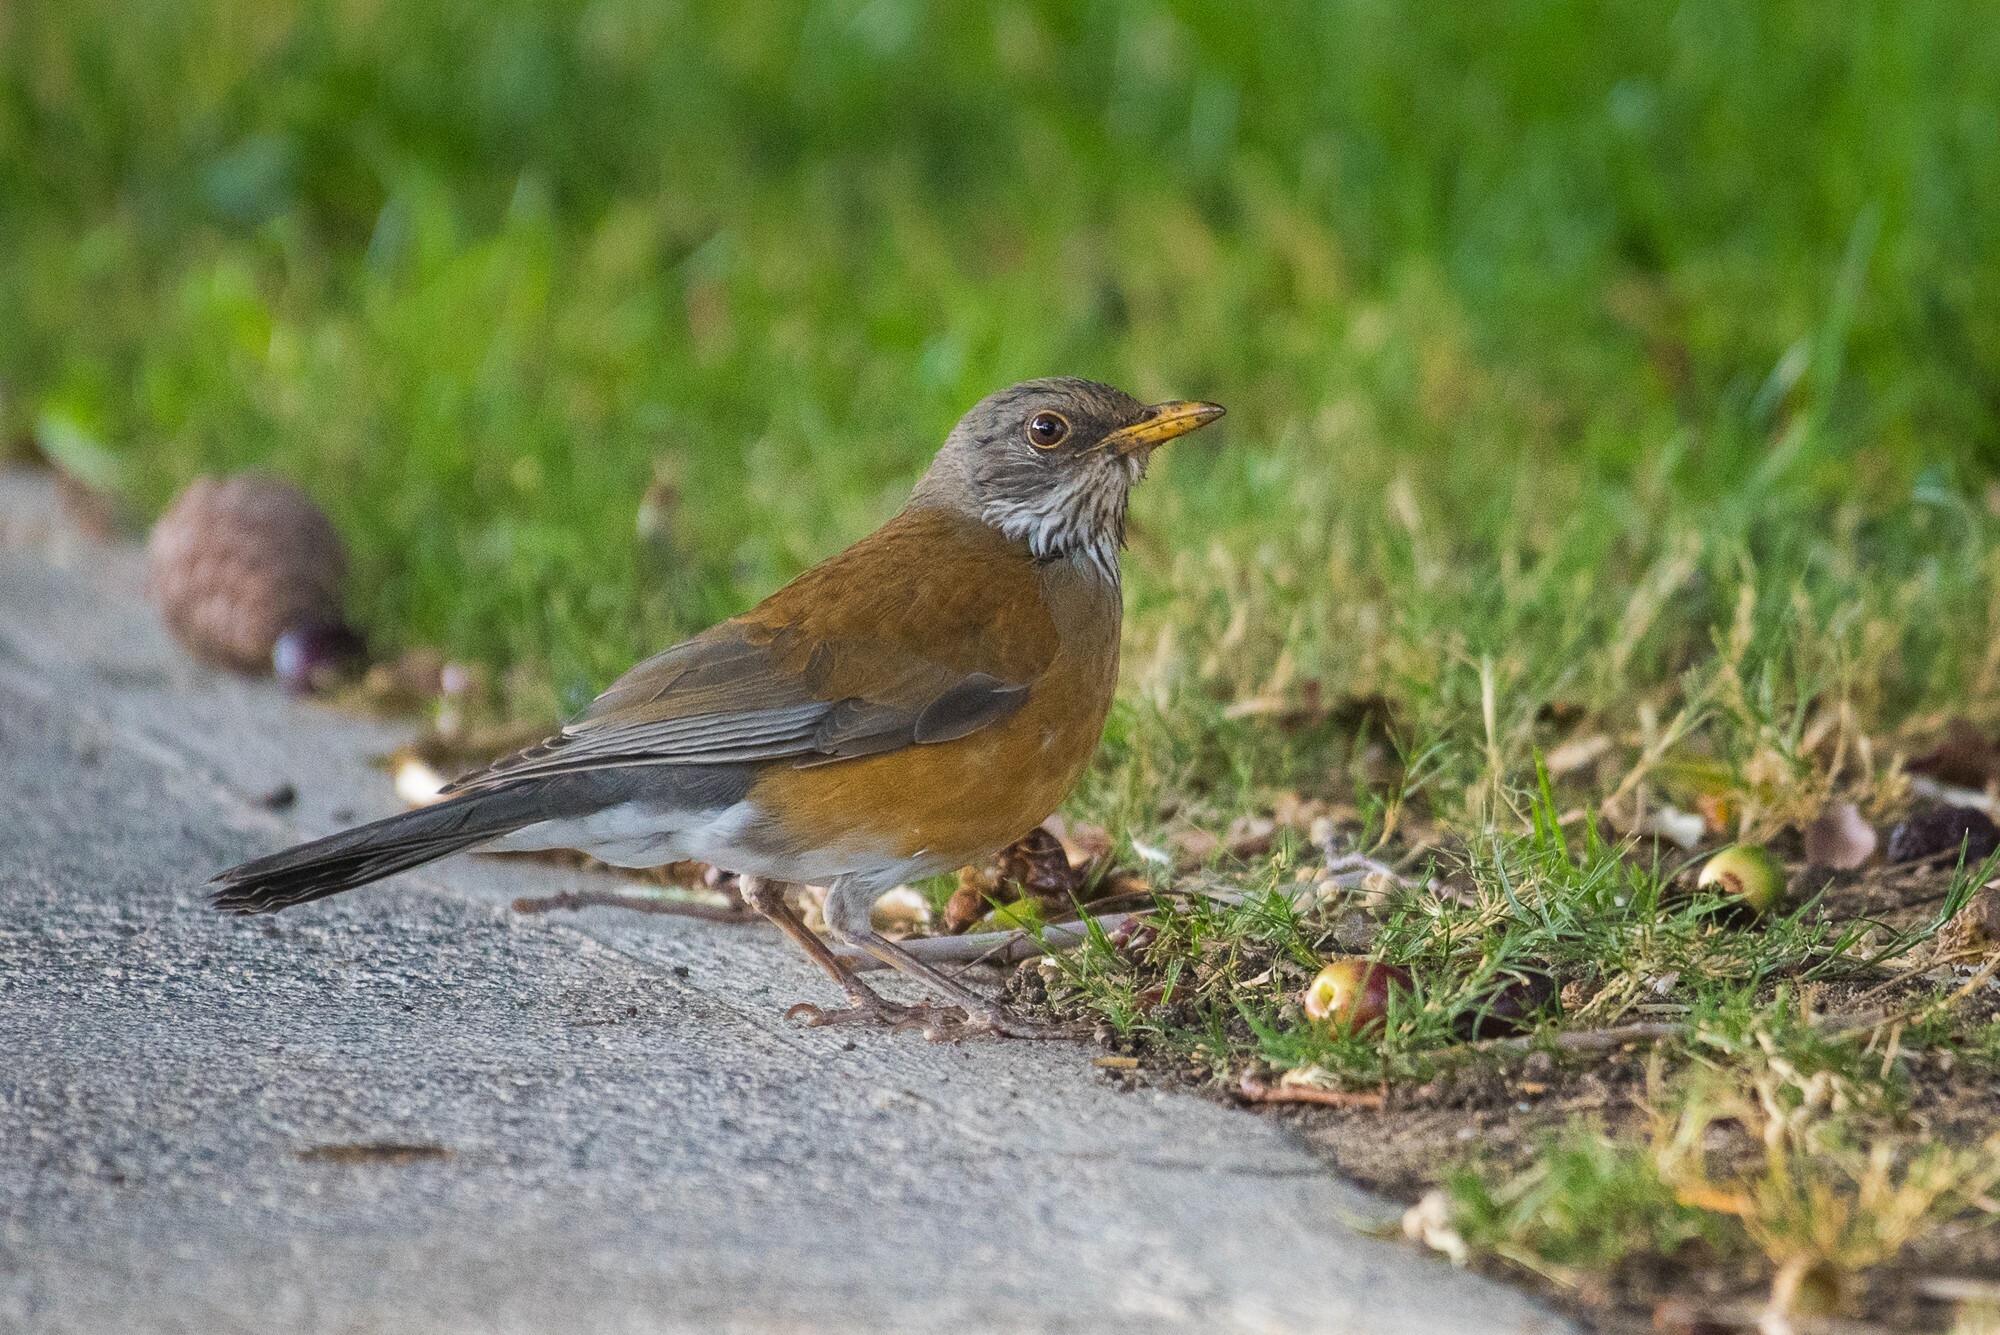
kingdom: Animalia
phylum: Chordata
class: Aves
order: Passeriformes
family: Turdidae
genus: Turdus
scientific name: Turdus rufopalliatus
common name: Rufous-backed robin
